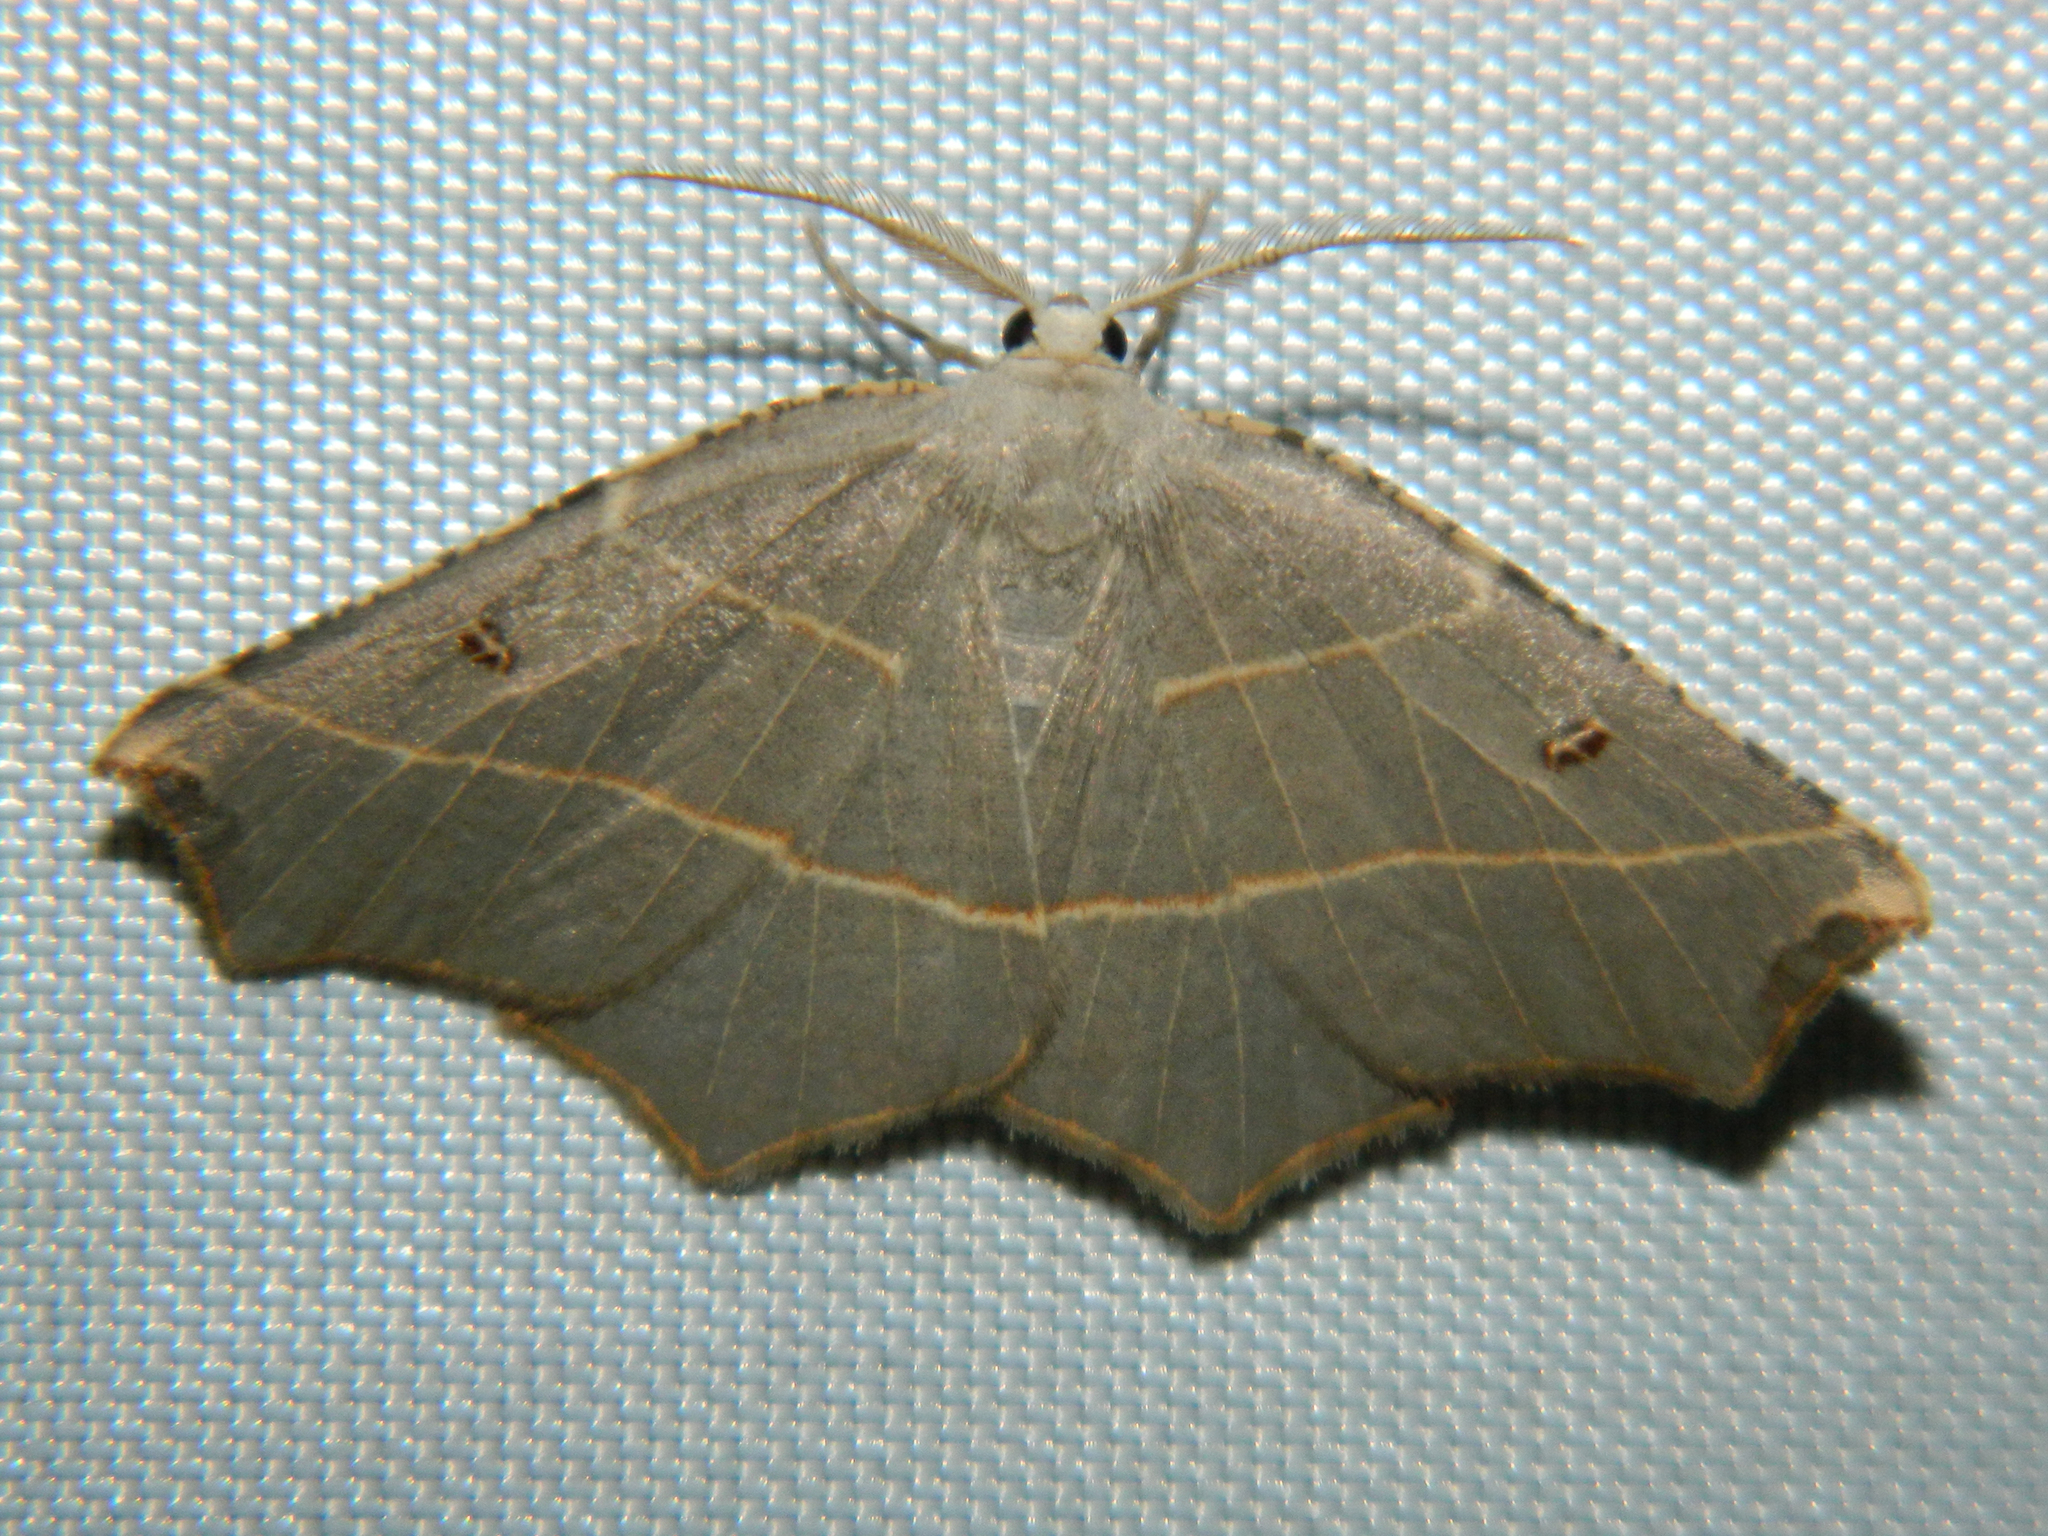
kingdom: Animalia
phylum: Arthropoda
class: Insecta
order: Lepidoptera
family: Geometridae
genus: Metanema
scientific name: Metanema inatomaria
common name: Pale metanema
